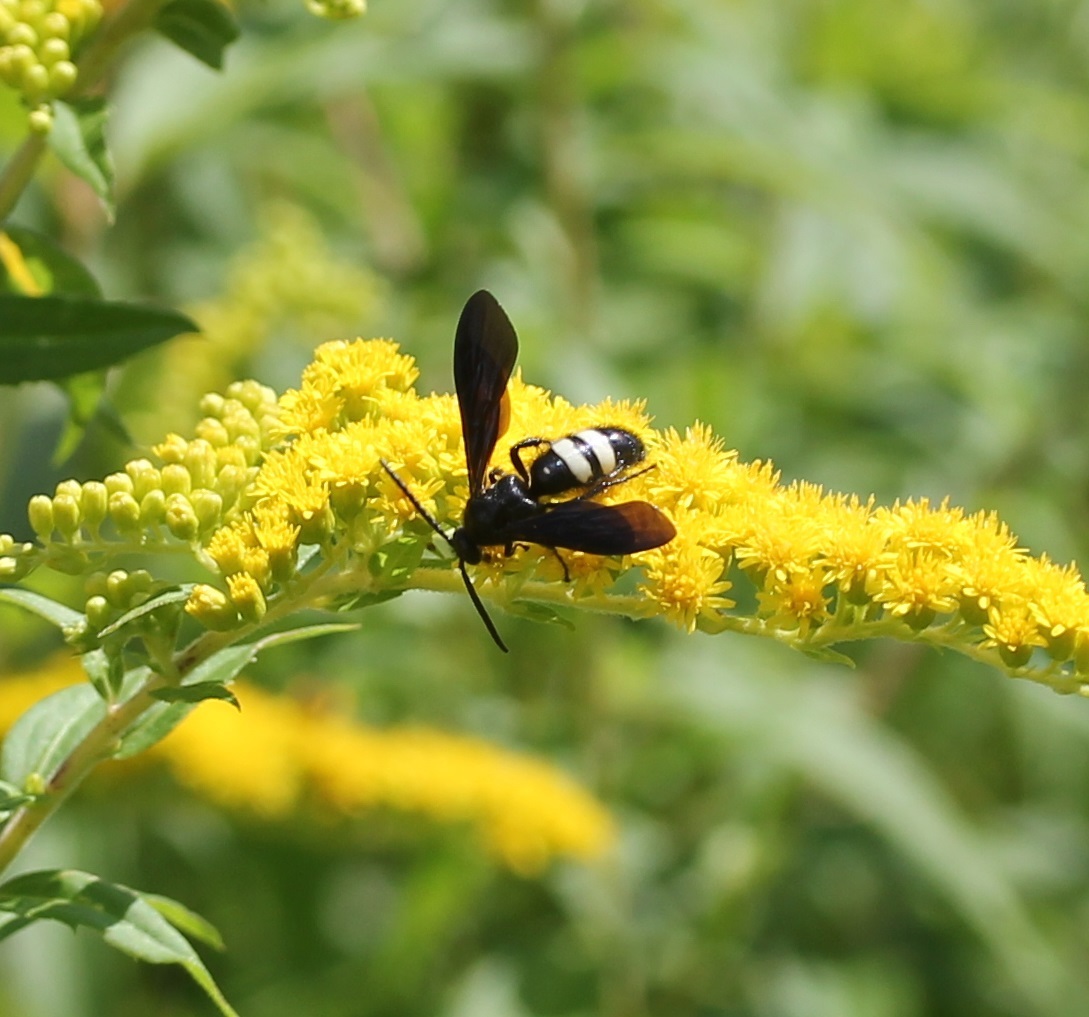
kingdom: Animalia
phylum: Arthropoda
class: Insecta
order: Hymenoptera
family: Scoliidae
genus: Scolia
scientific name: Scolia bicincta
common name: Double-banded scoliid wasp
